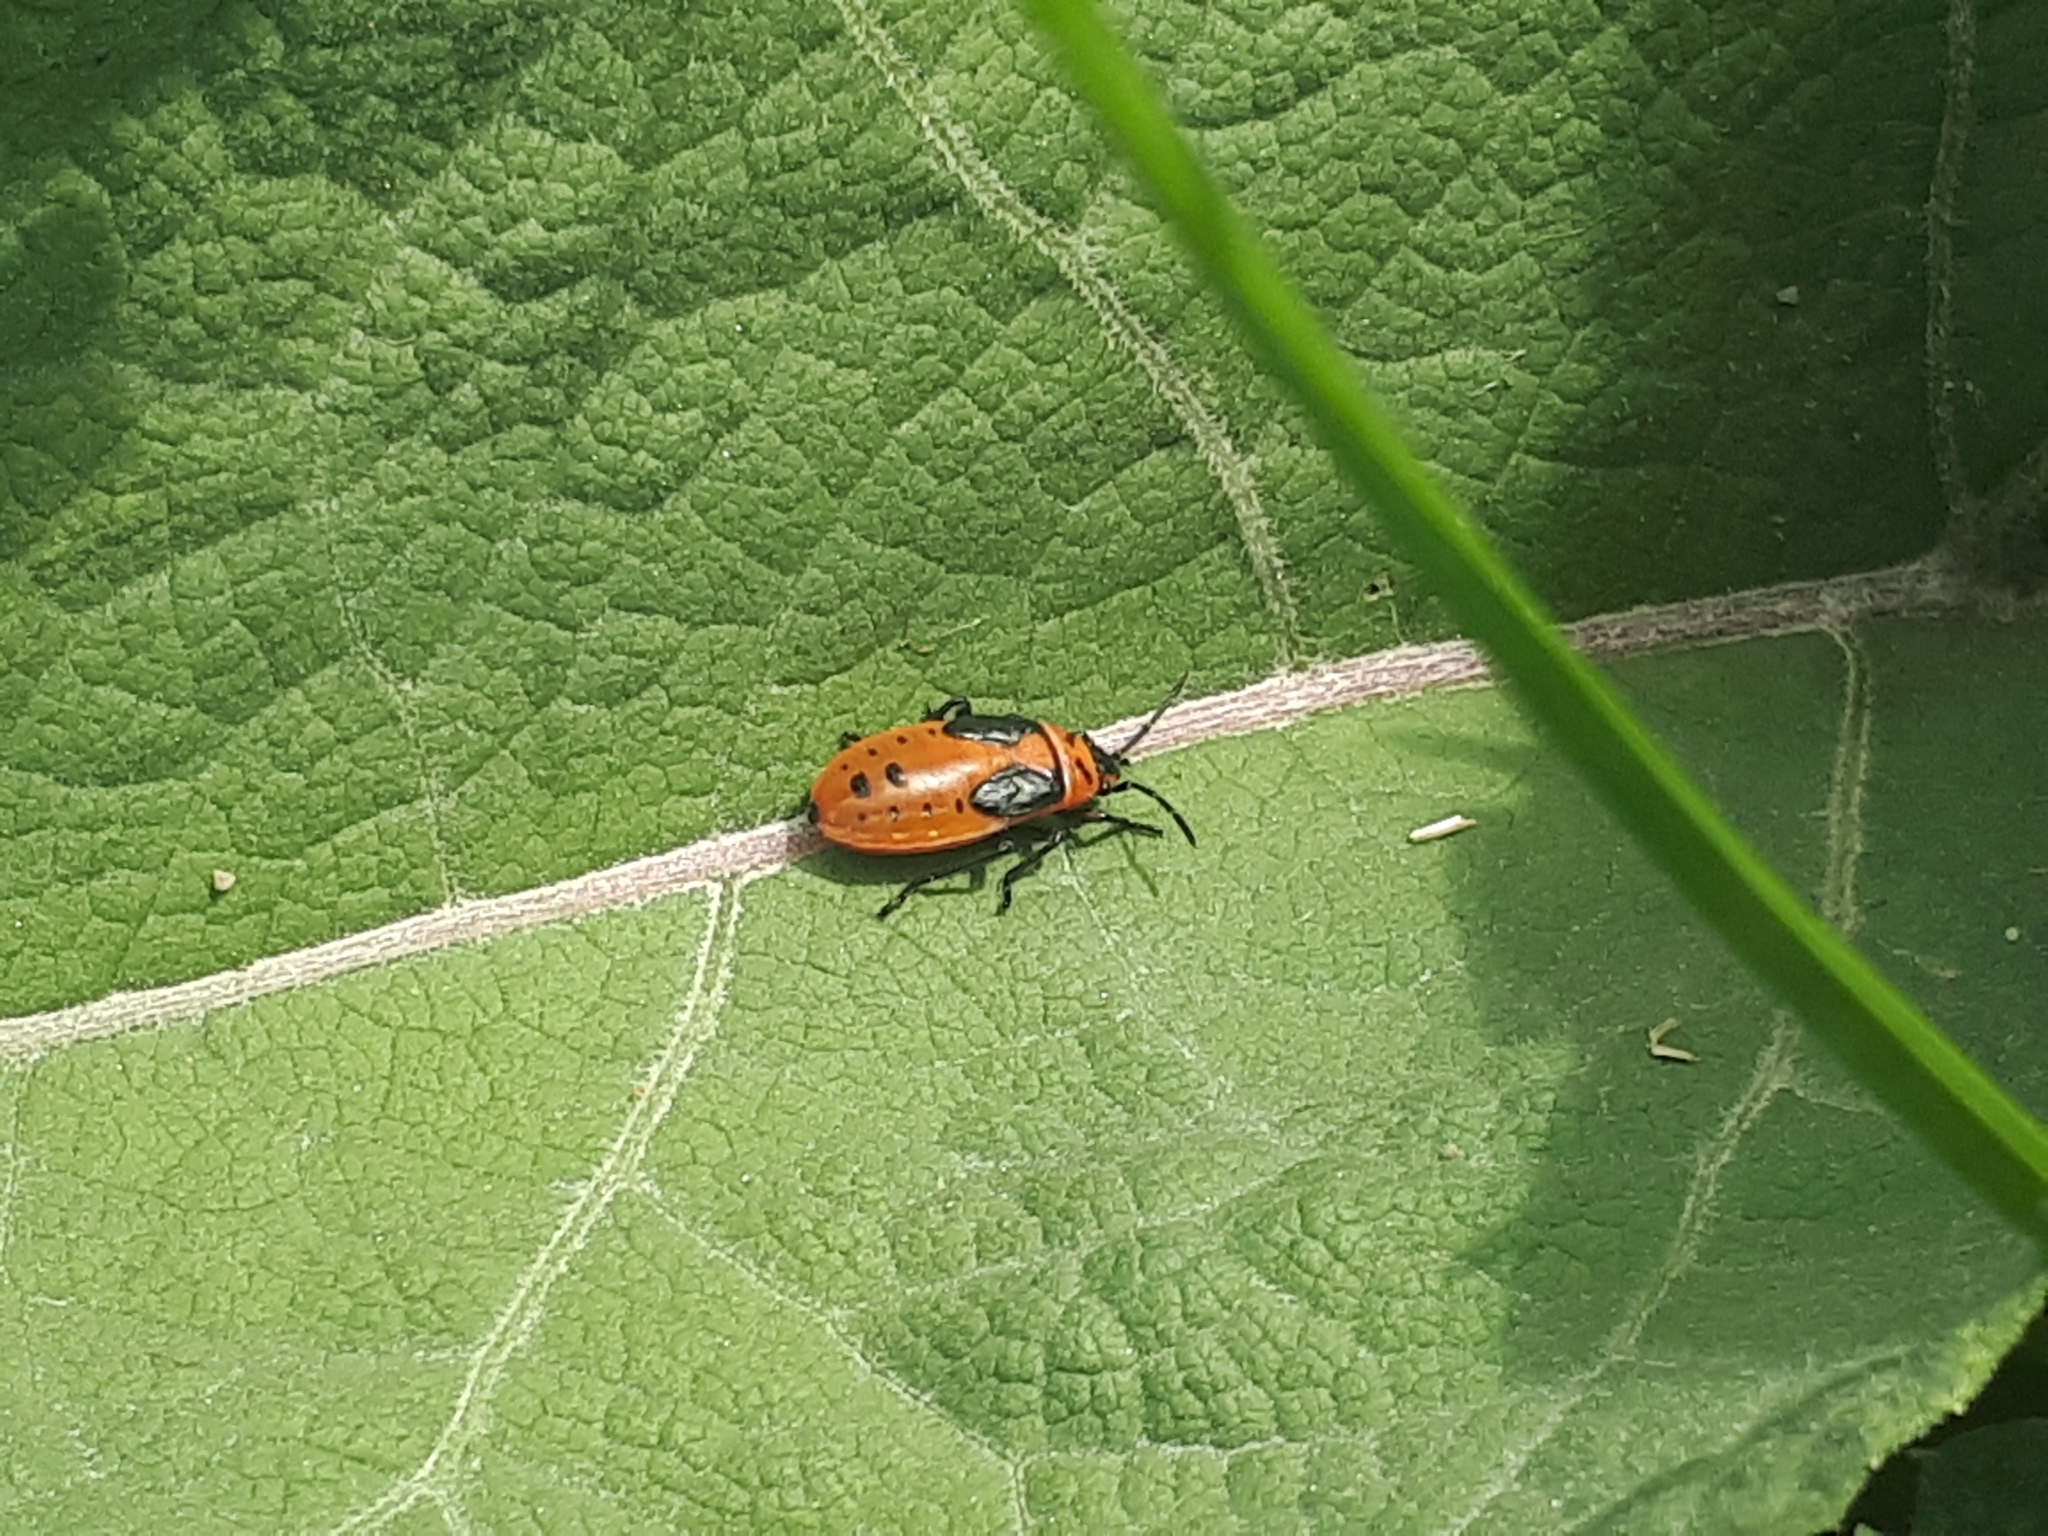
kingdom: Animalia
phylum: Arthropoda
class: Insecta
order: Hemiptera
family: Lygaeidae
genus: Lygaeus
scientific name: Lygaeus kalmii
